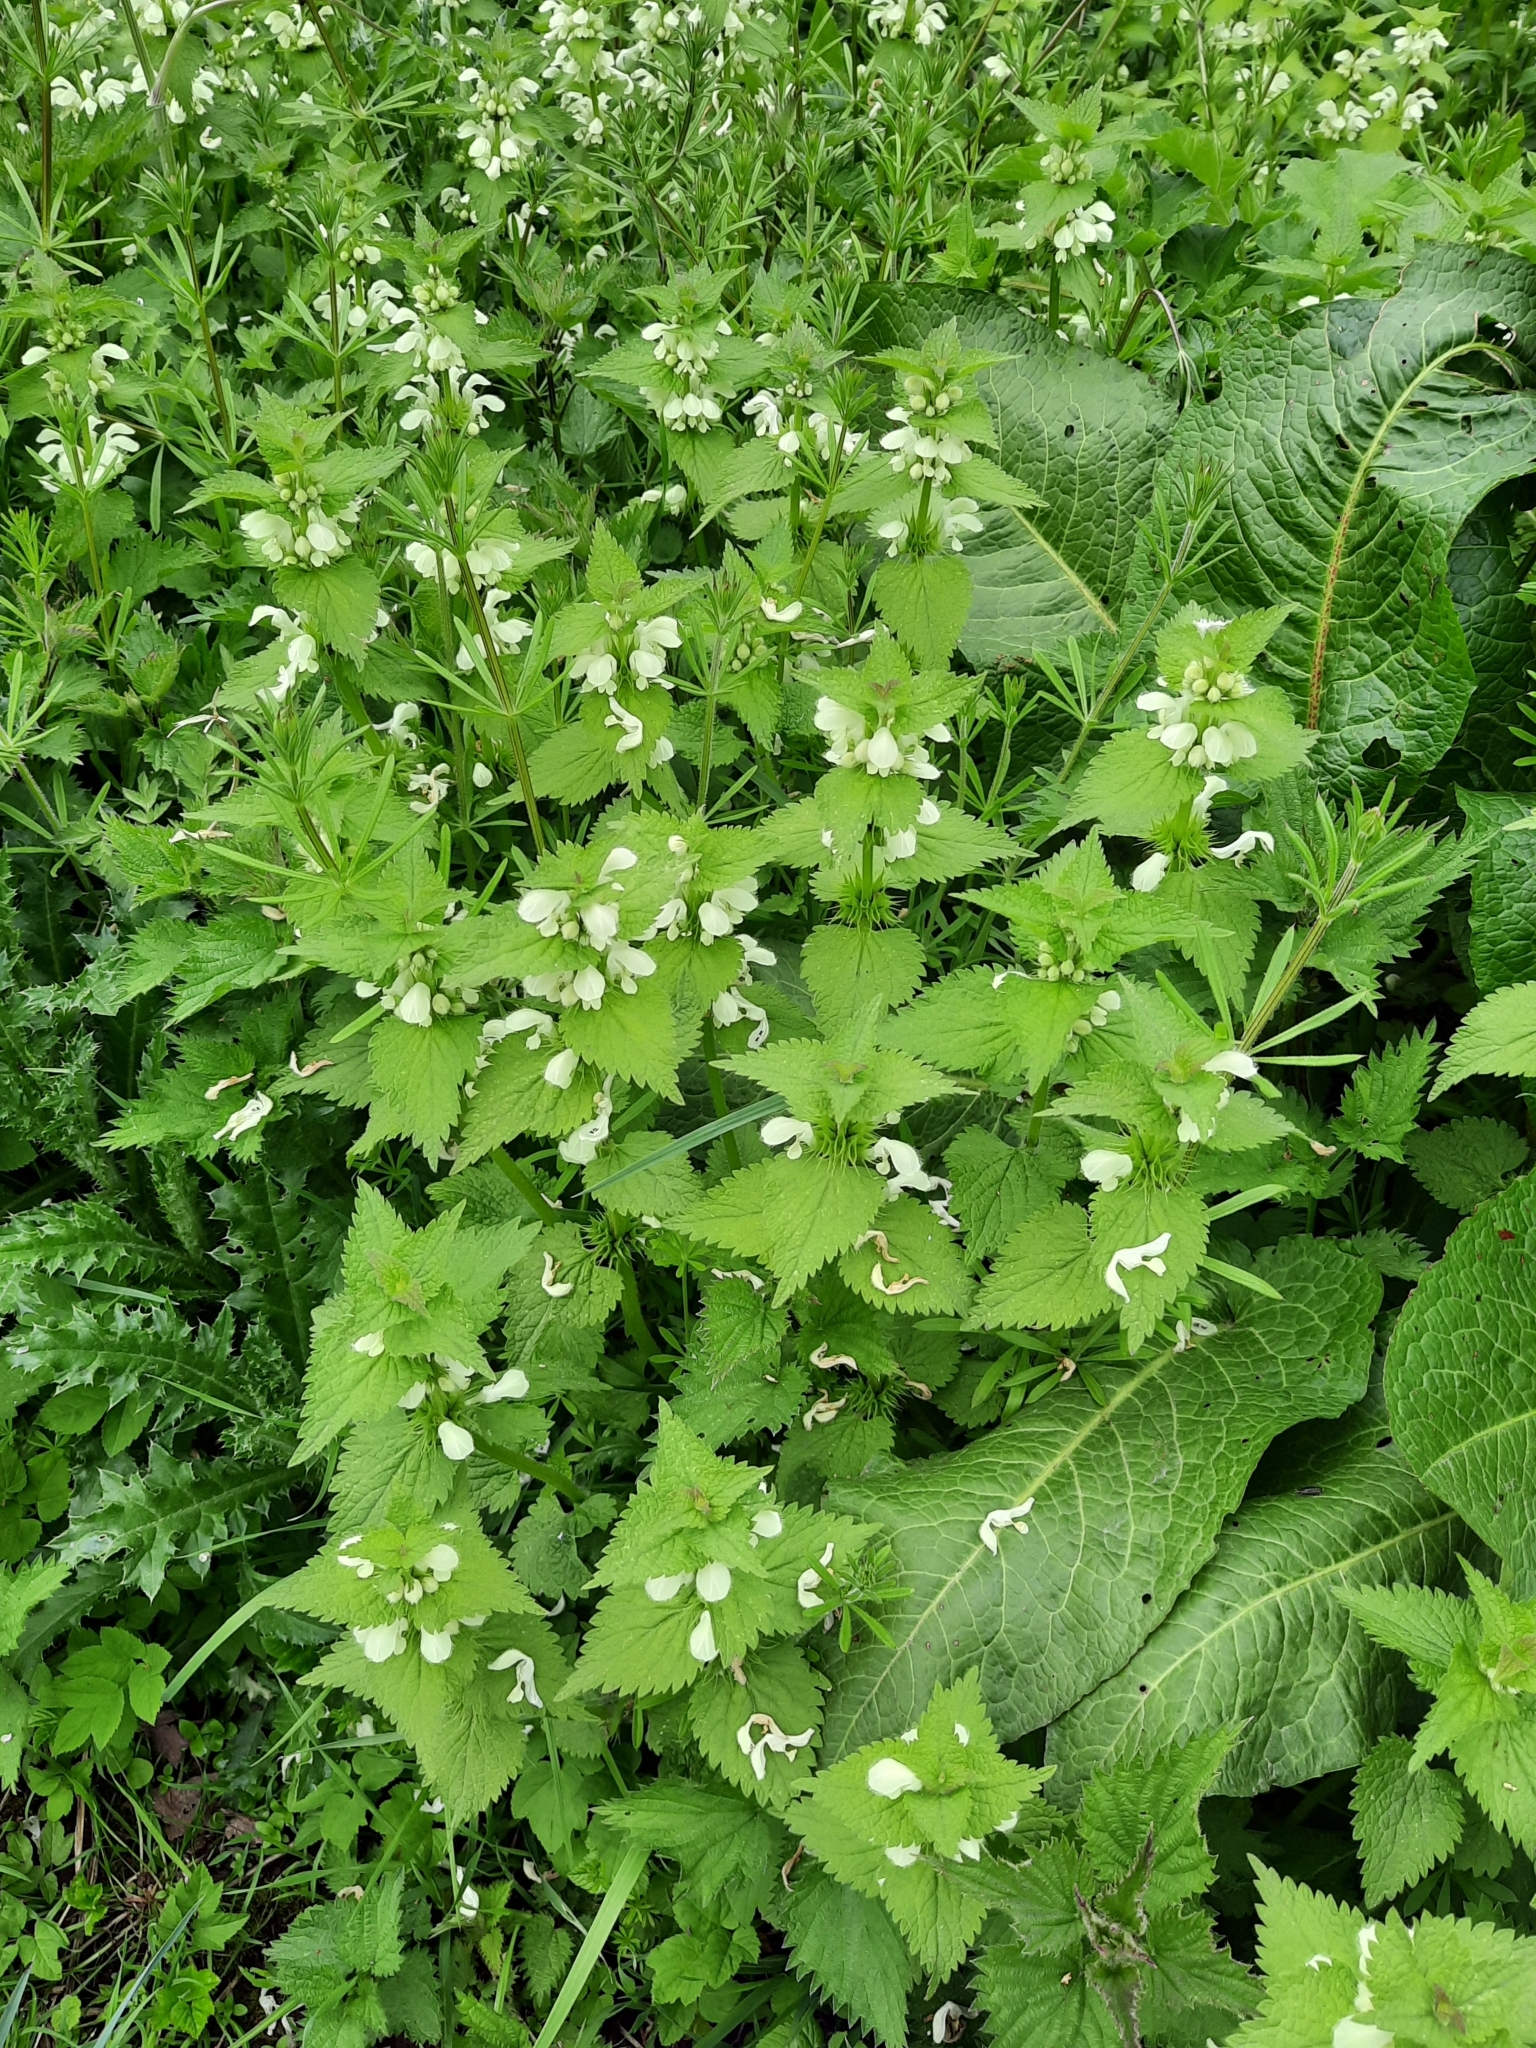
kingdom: Plantae
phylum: Tracheophyta
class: Magnoliopsida
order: Lamiales
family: Lamiaceae
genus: Lamium
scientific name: Lamium album
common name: White dead-nettle
